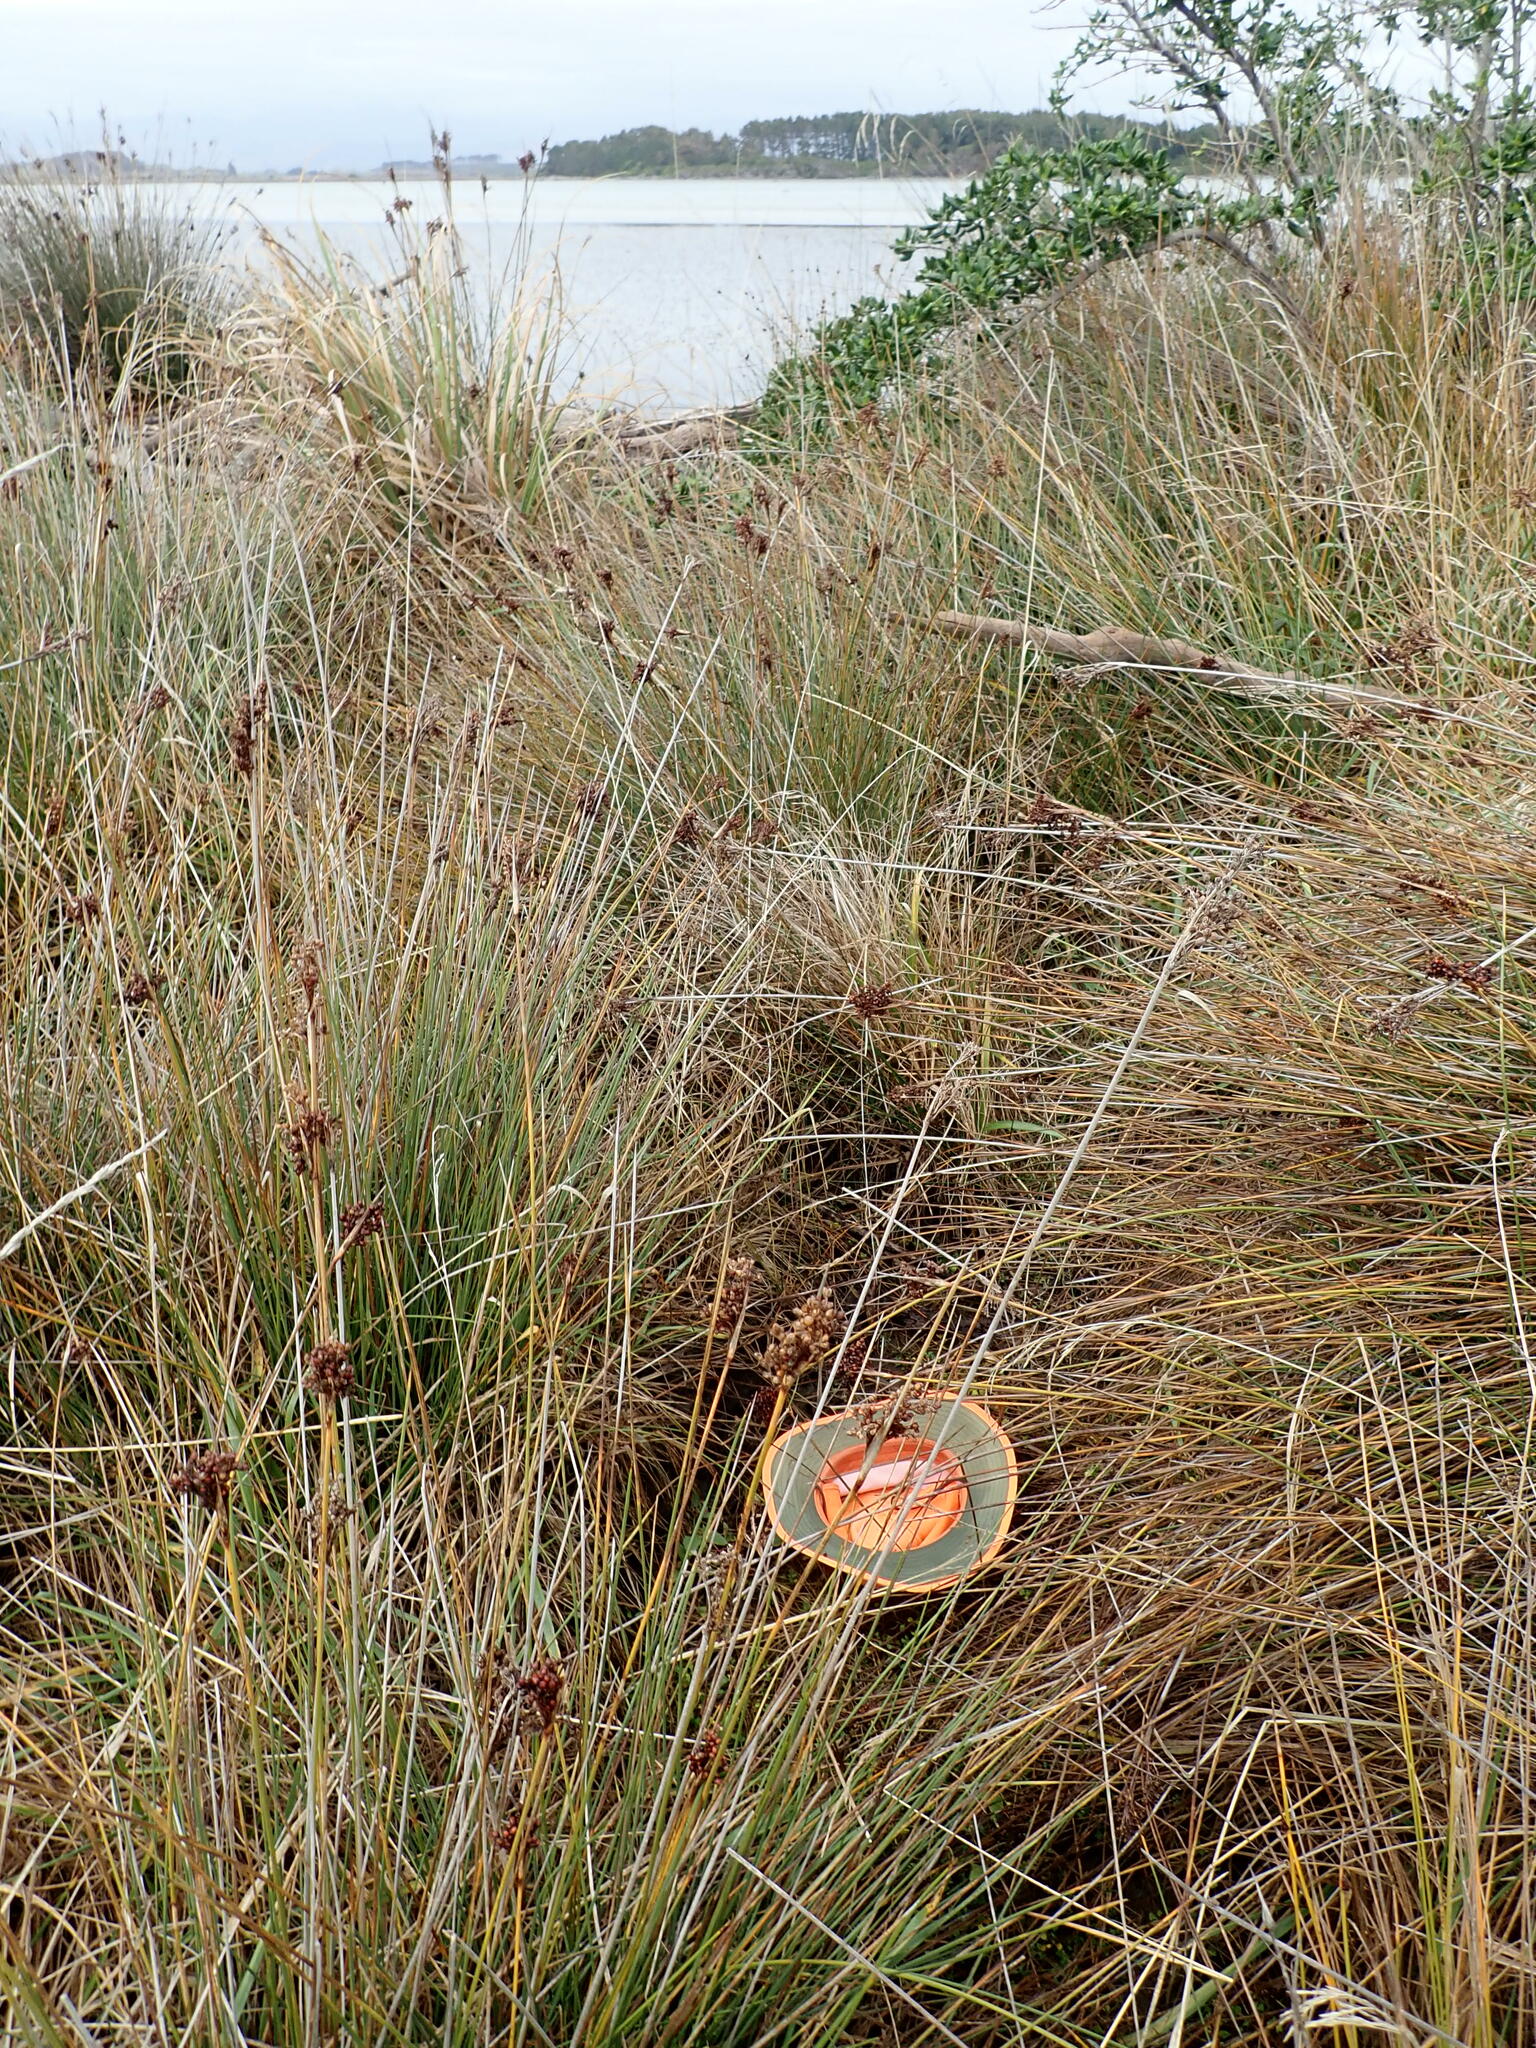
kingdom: Plantae
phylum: Tracheophyta
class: Magnoliopsida
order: Apiales
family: Apiaceae
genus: Apium
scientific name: Apium prostratum
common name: Prostrate marshwort
